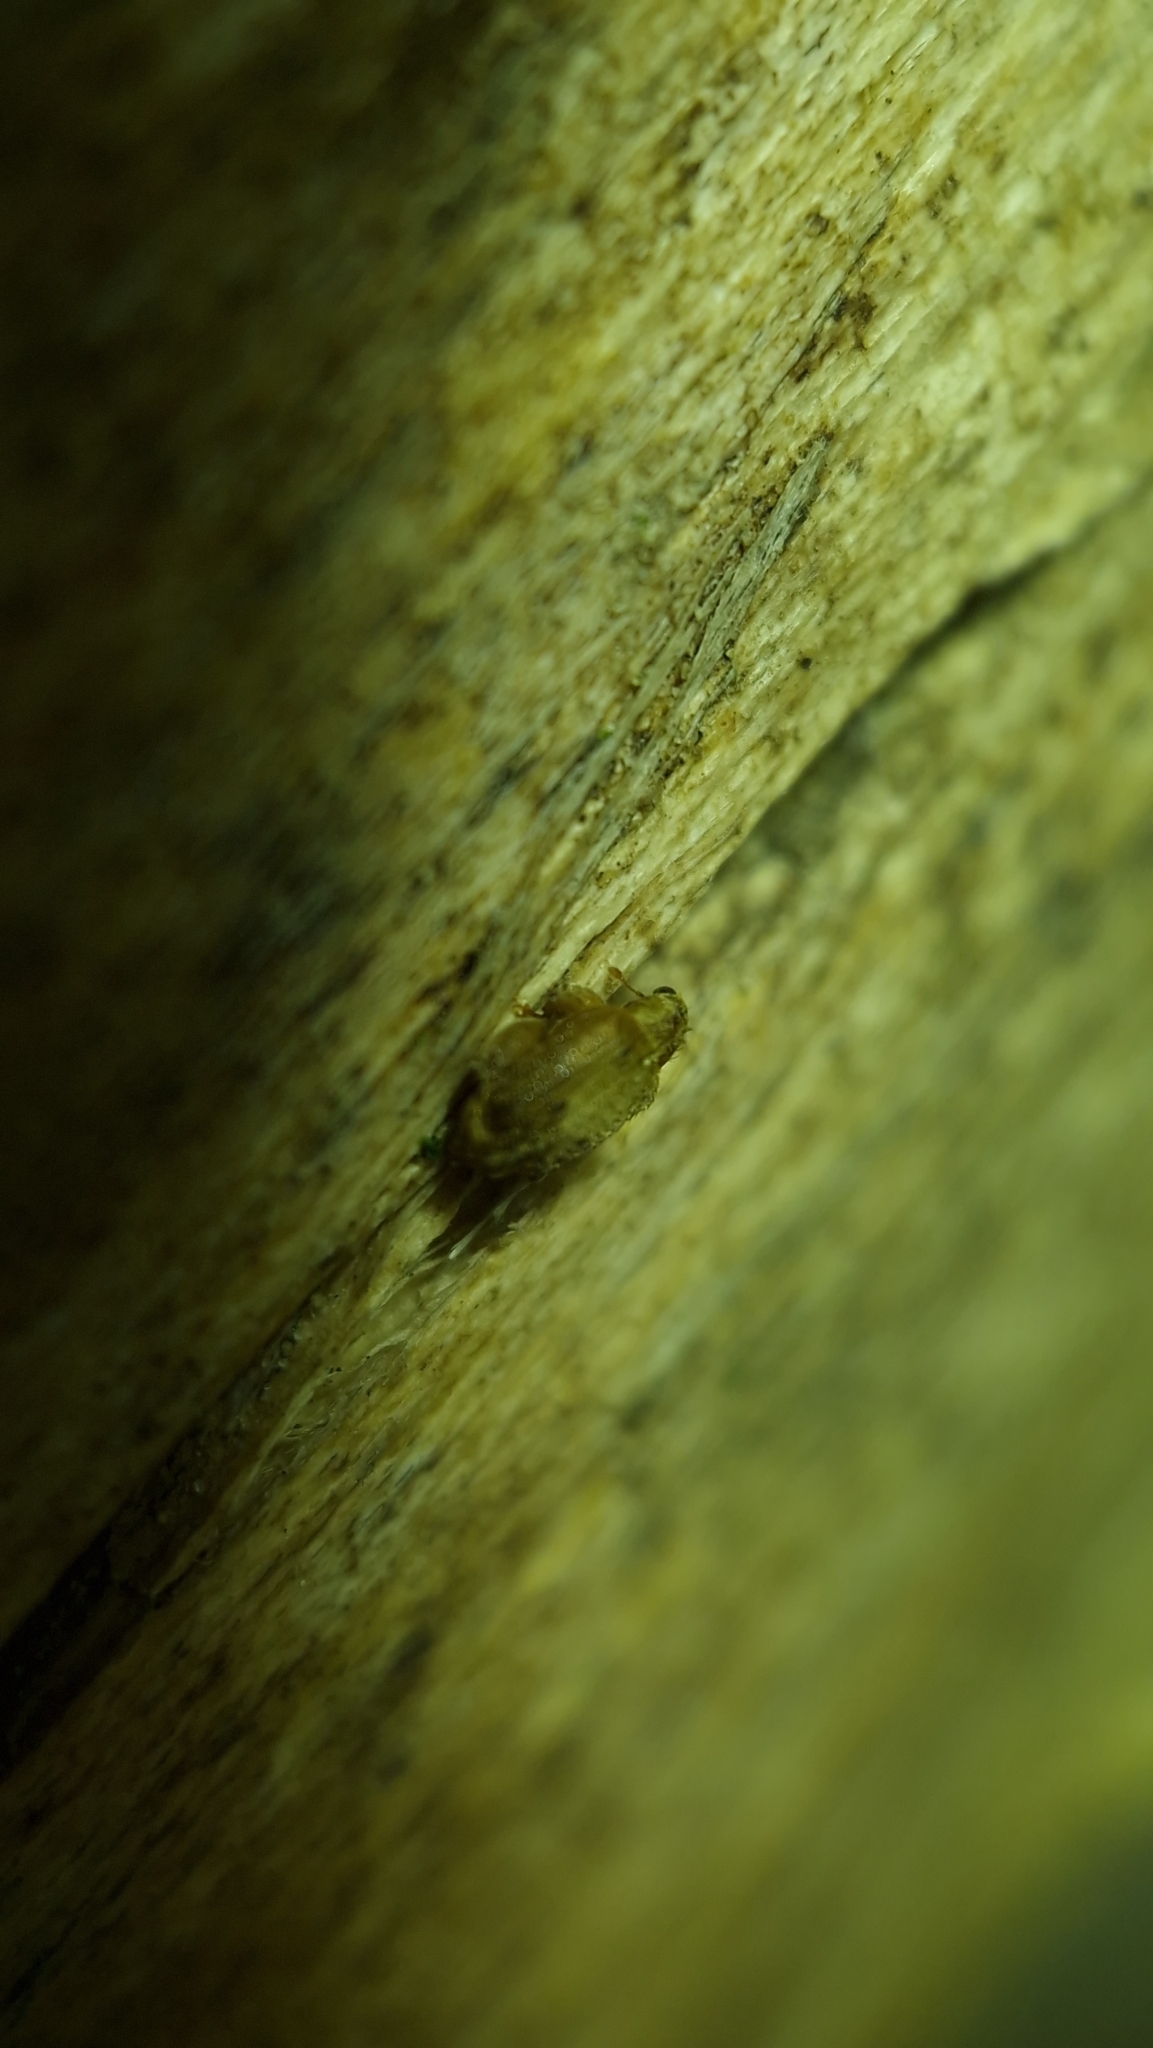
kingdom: Animalia
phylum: Arthropoda
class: Insecta
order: Coleoptera
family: Curculionidae
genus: Orchestes
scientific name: Orchestes quercus
